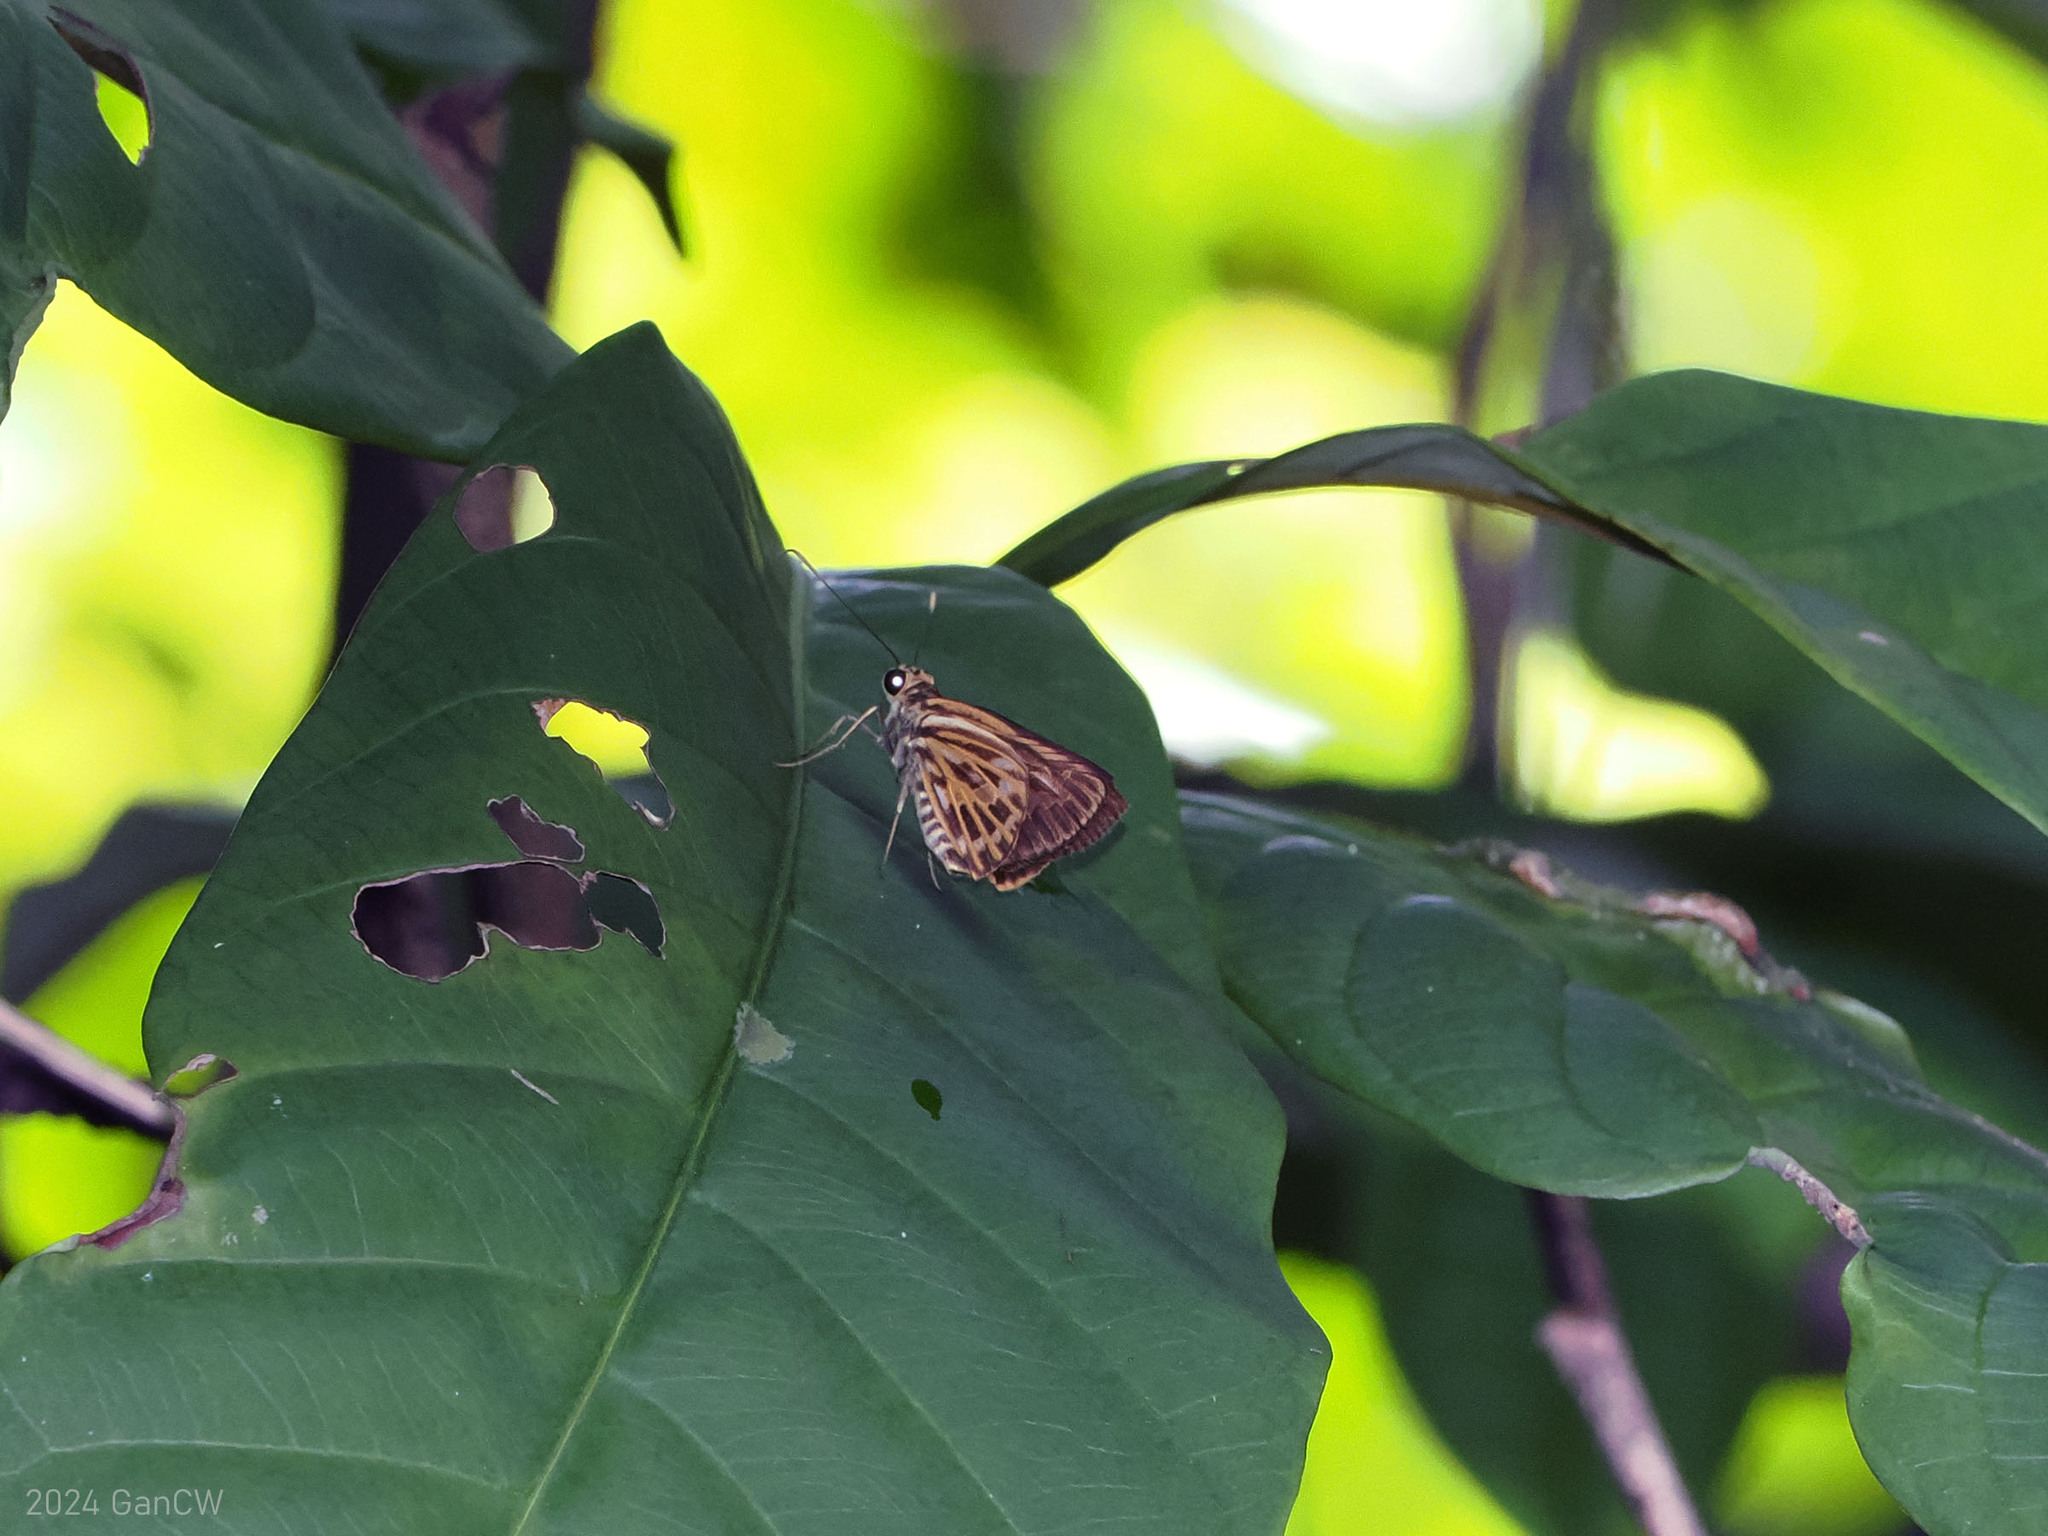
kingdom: Animalia
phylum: Arthropoda
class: Insecta
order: Lepidoptera
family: Hesperiidae
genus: Pyroneura
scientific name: Pyroneura latoia
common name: Yellow vein lancer
